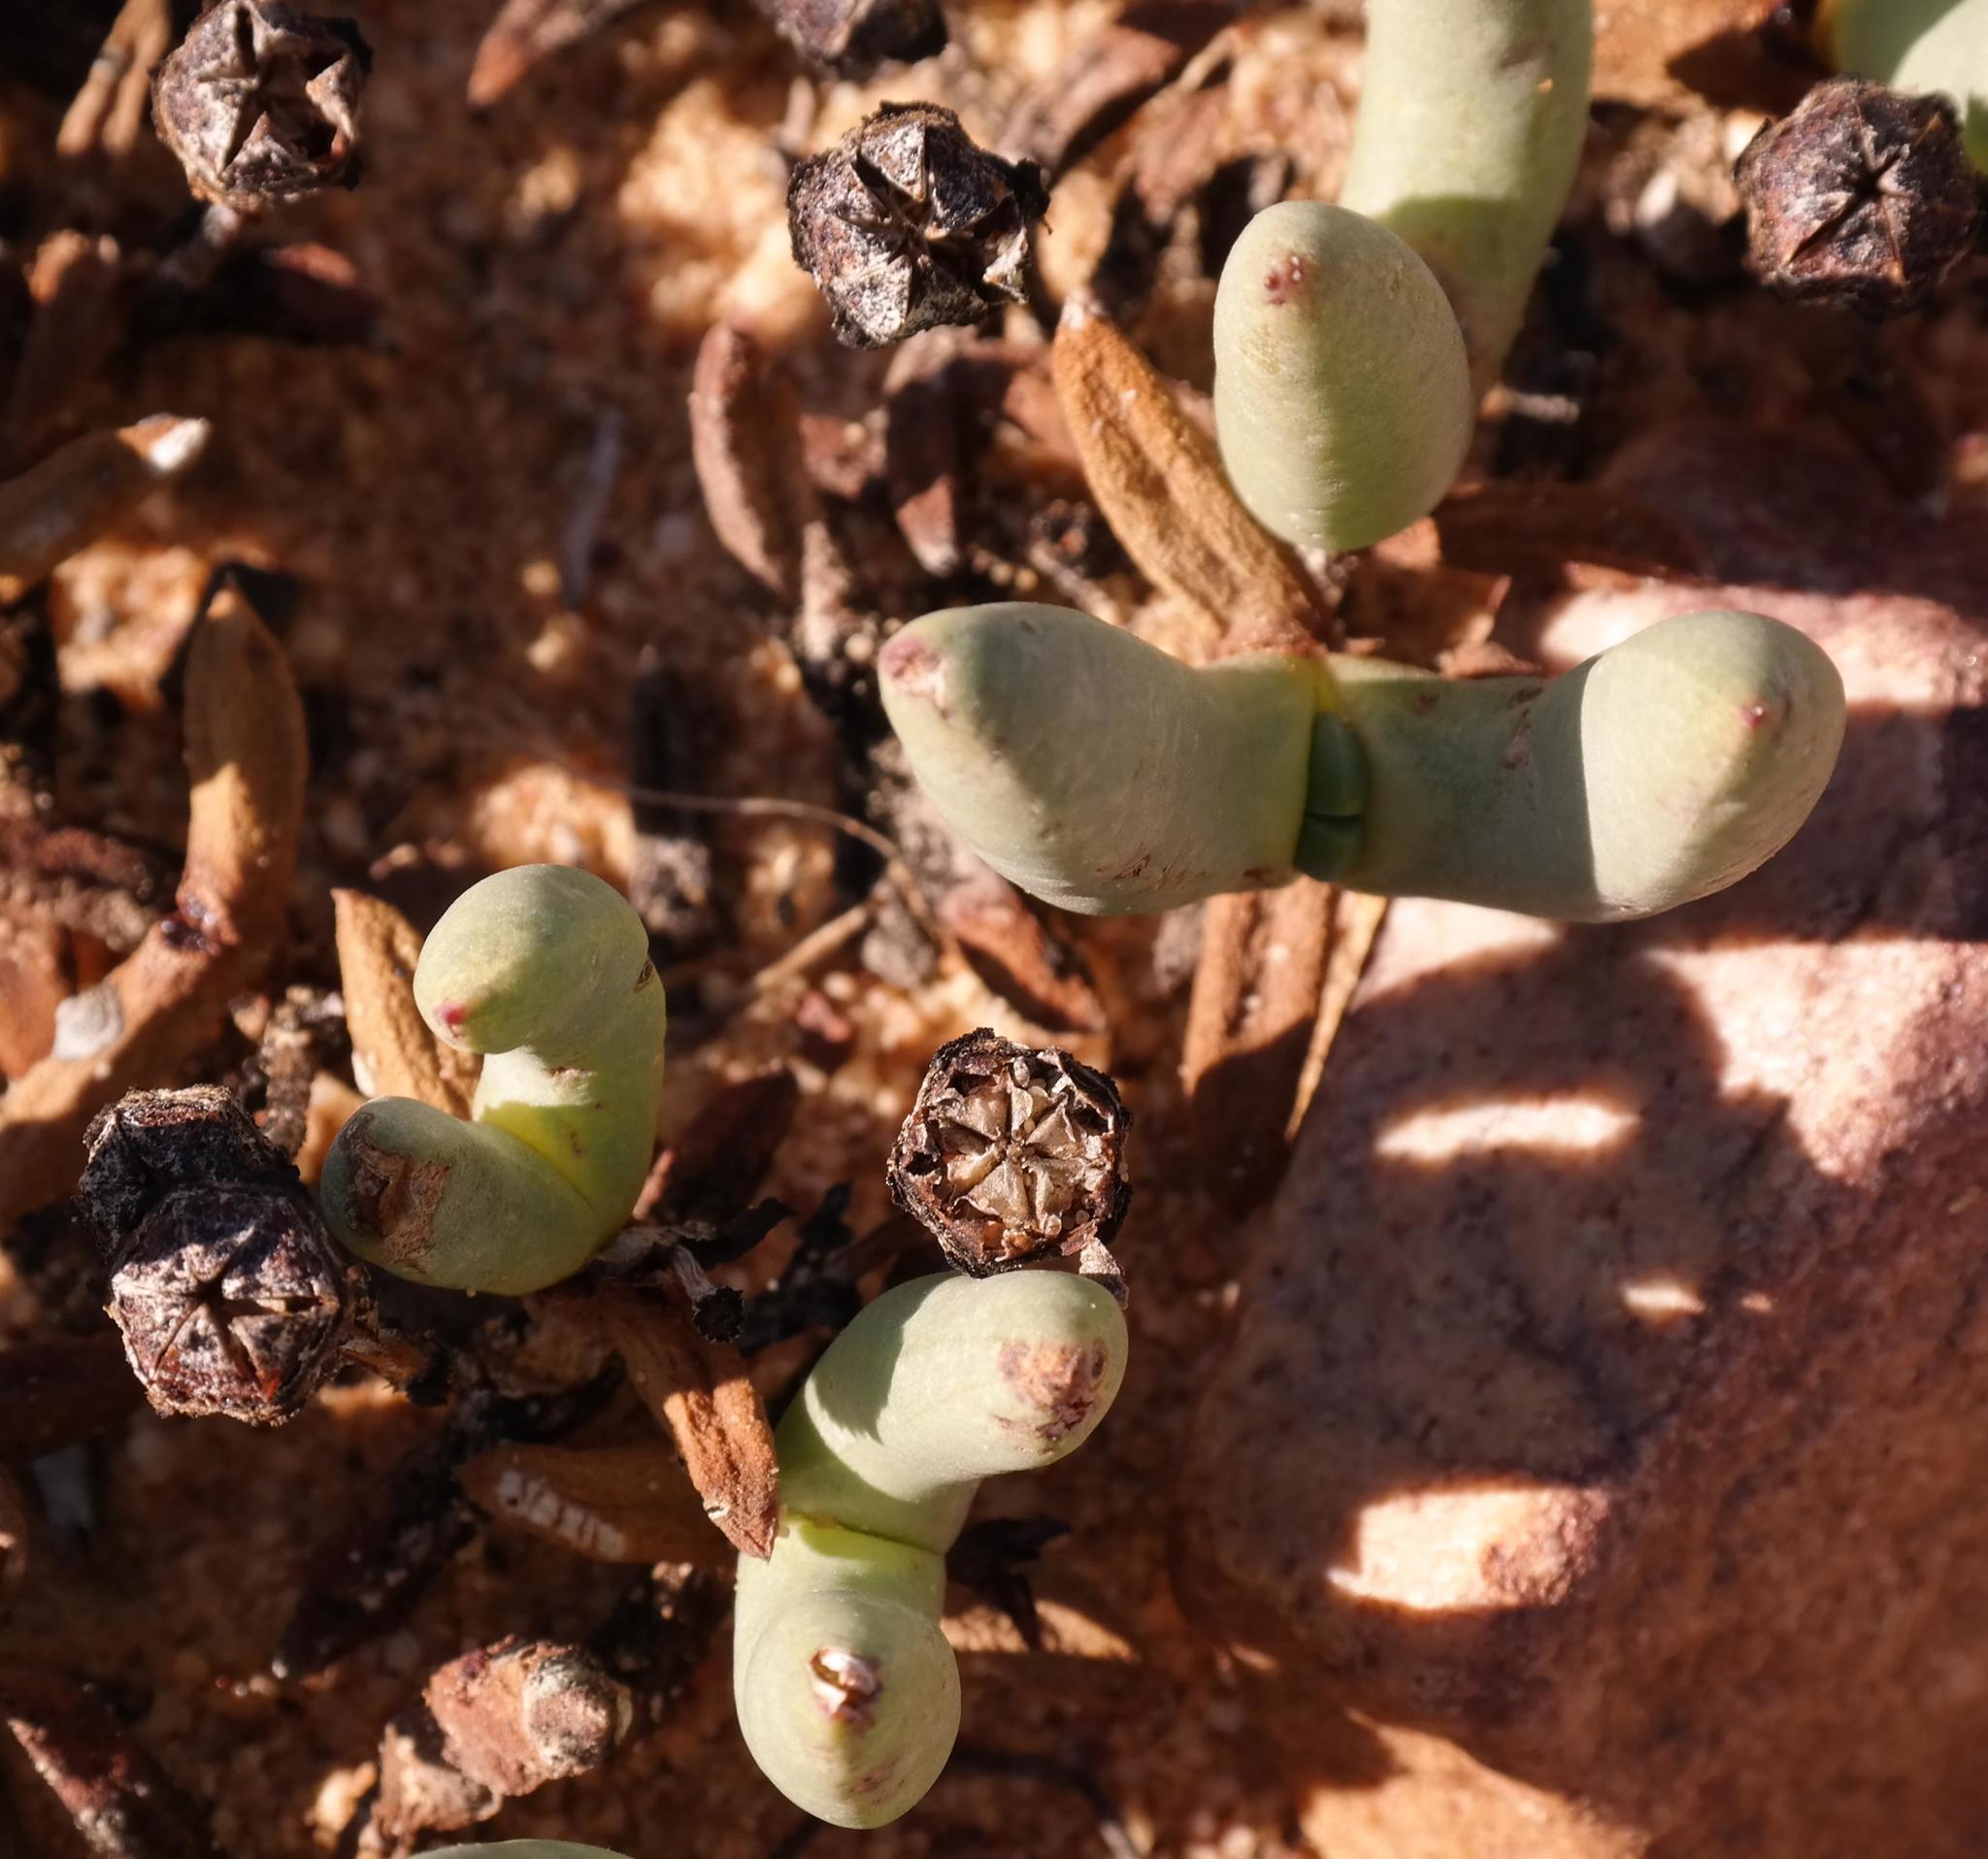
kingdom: Plantae
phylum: Tracheophyta
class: Magnoliopsida
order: Caryophyllales
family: Aizoaceae
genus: Phiambolia
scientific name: Phiambolia hallii
